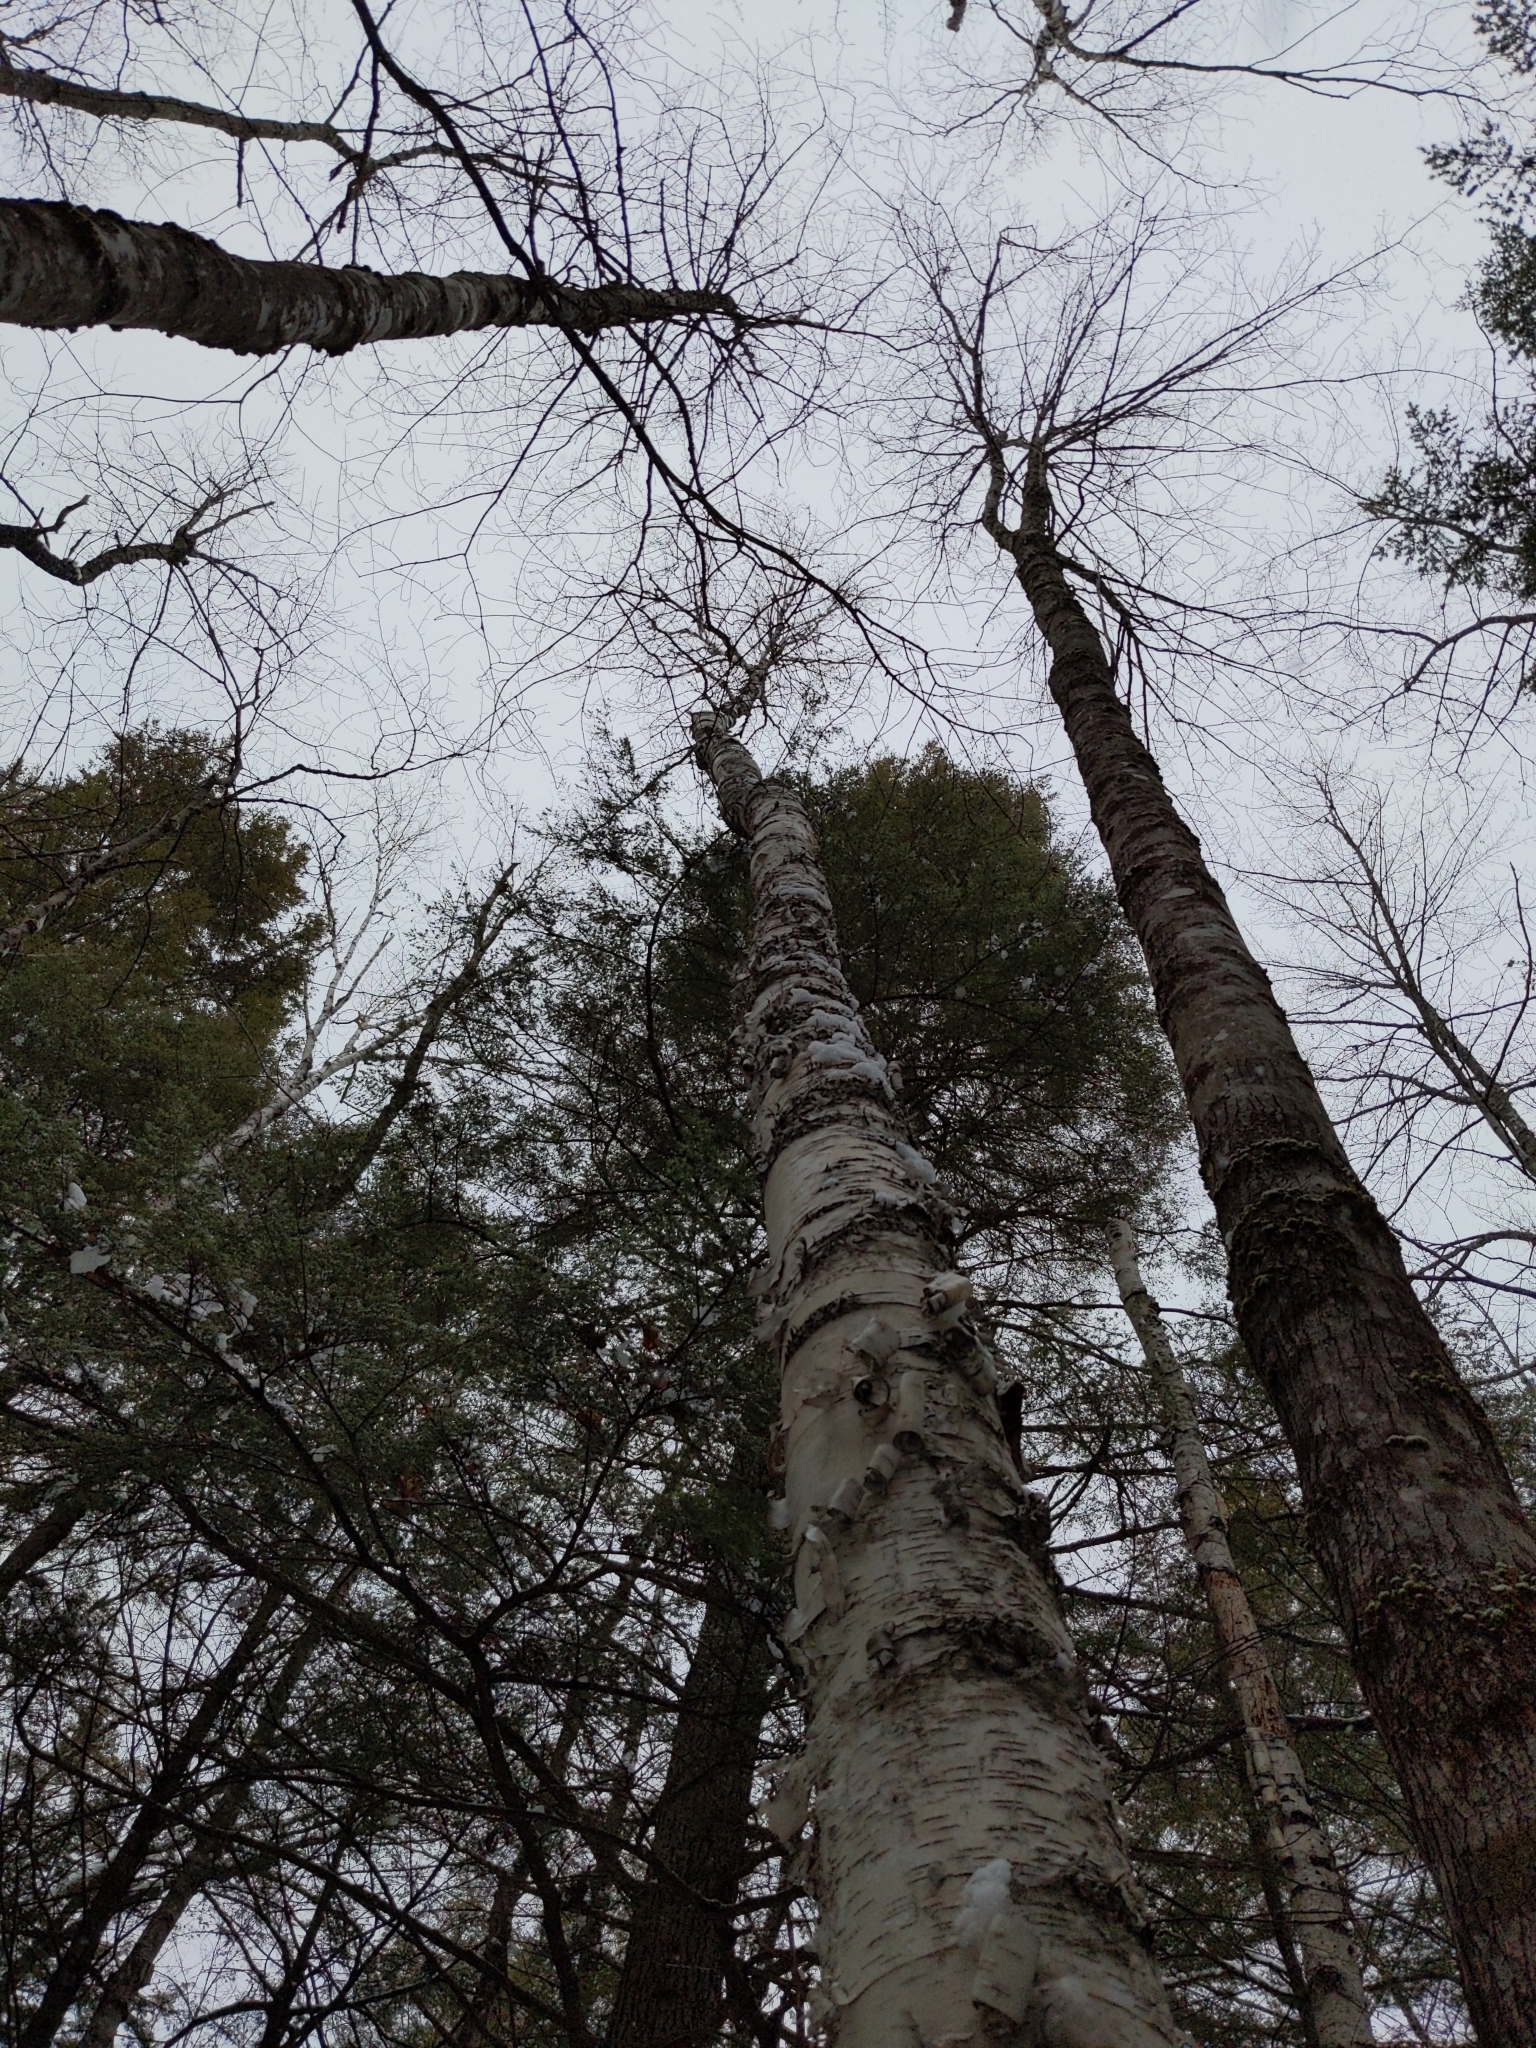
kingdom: Plantae
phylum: Tracheophyta
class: Magnoliopsida
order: Fagales
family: Betulaceae
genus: Betula
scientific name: Betula papyrifera
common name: Paper birch
